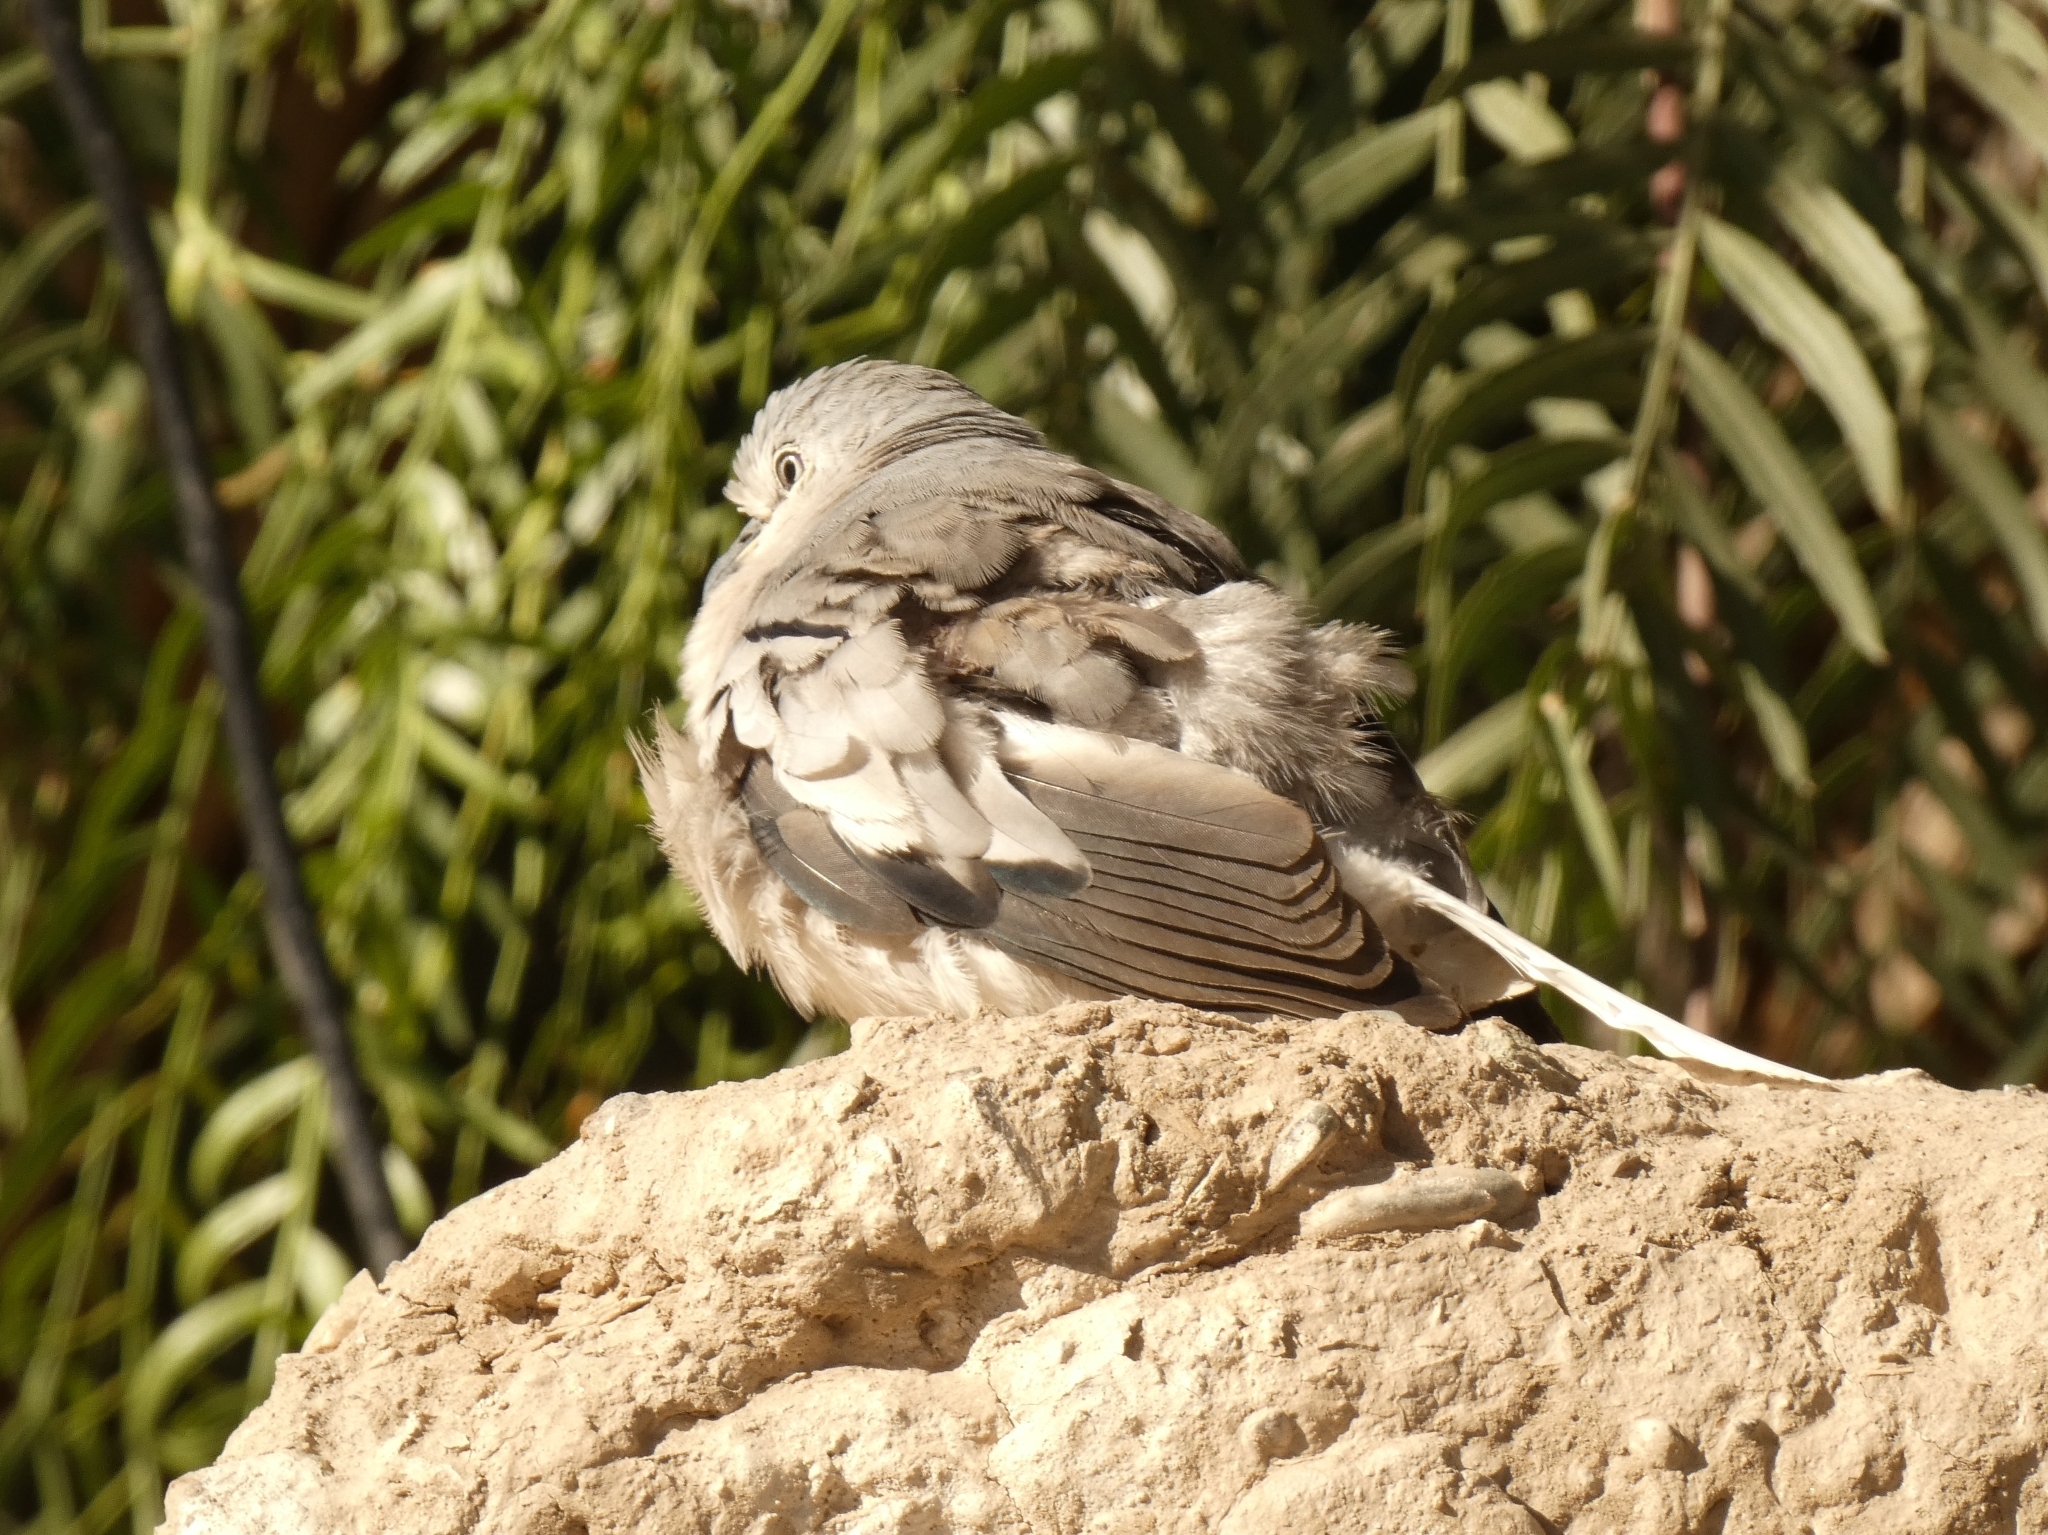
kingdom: Animalia
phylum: Chordata
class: Aves
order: Columbiformes
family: Columbidae
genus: Columbina
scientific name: Columbina picui
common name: Picui ground dove
